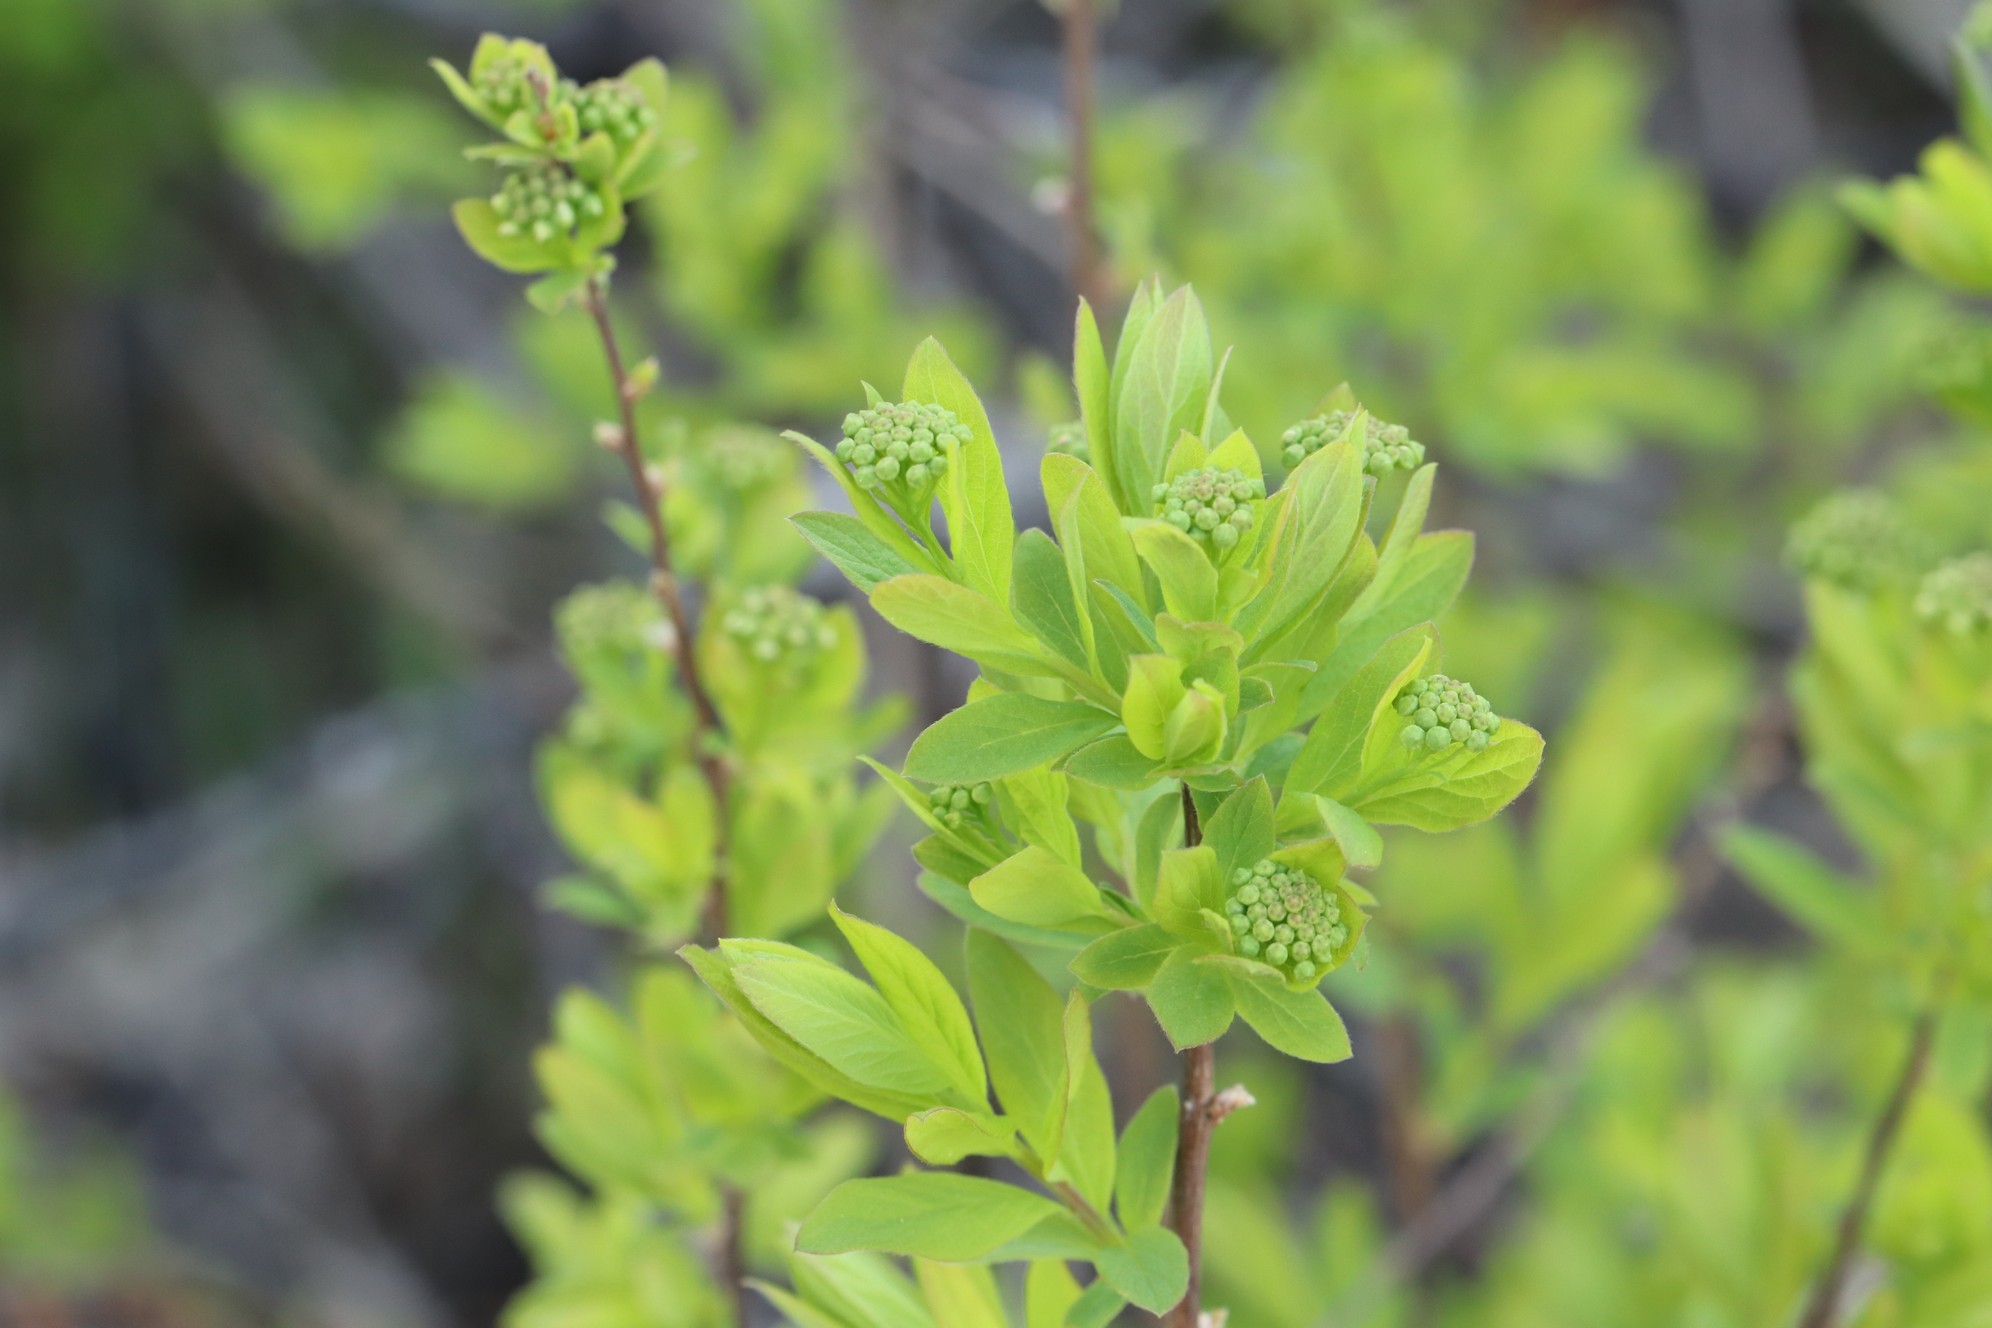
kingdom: Plantae
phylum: Tracheophyta
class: Magnoliopsida
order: Rosales
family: Rosaceae
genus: Spiraea
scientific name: Spiraea media
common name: Russian spiraea
